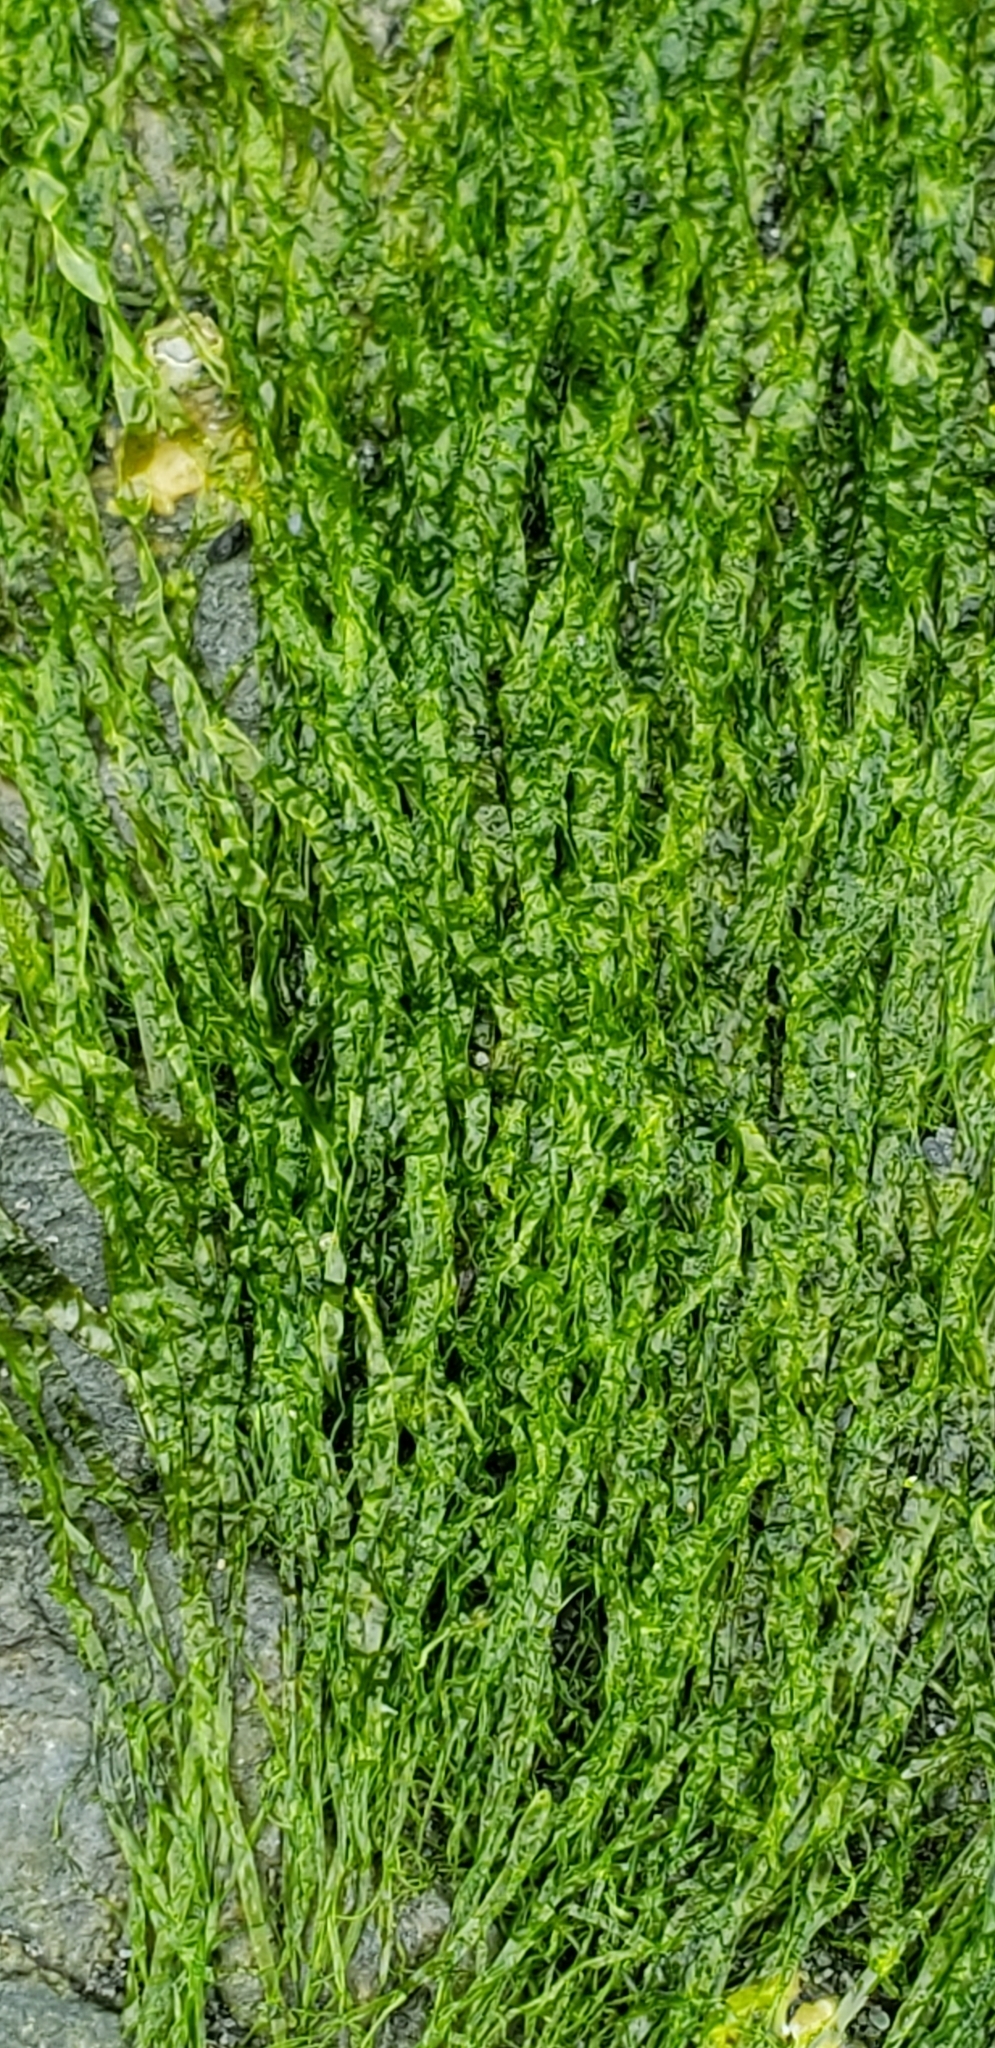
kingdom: Plantae
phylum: Chlorophyta
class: Ulvophyceae
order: Ulvales
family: Ulvaceae
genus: Ulva
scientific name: Ulva intestinalis
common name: Gut weed
